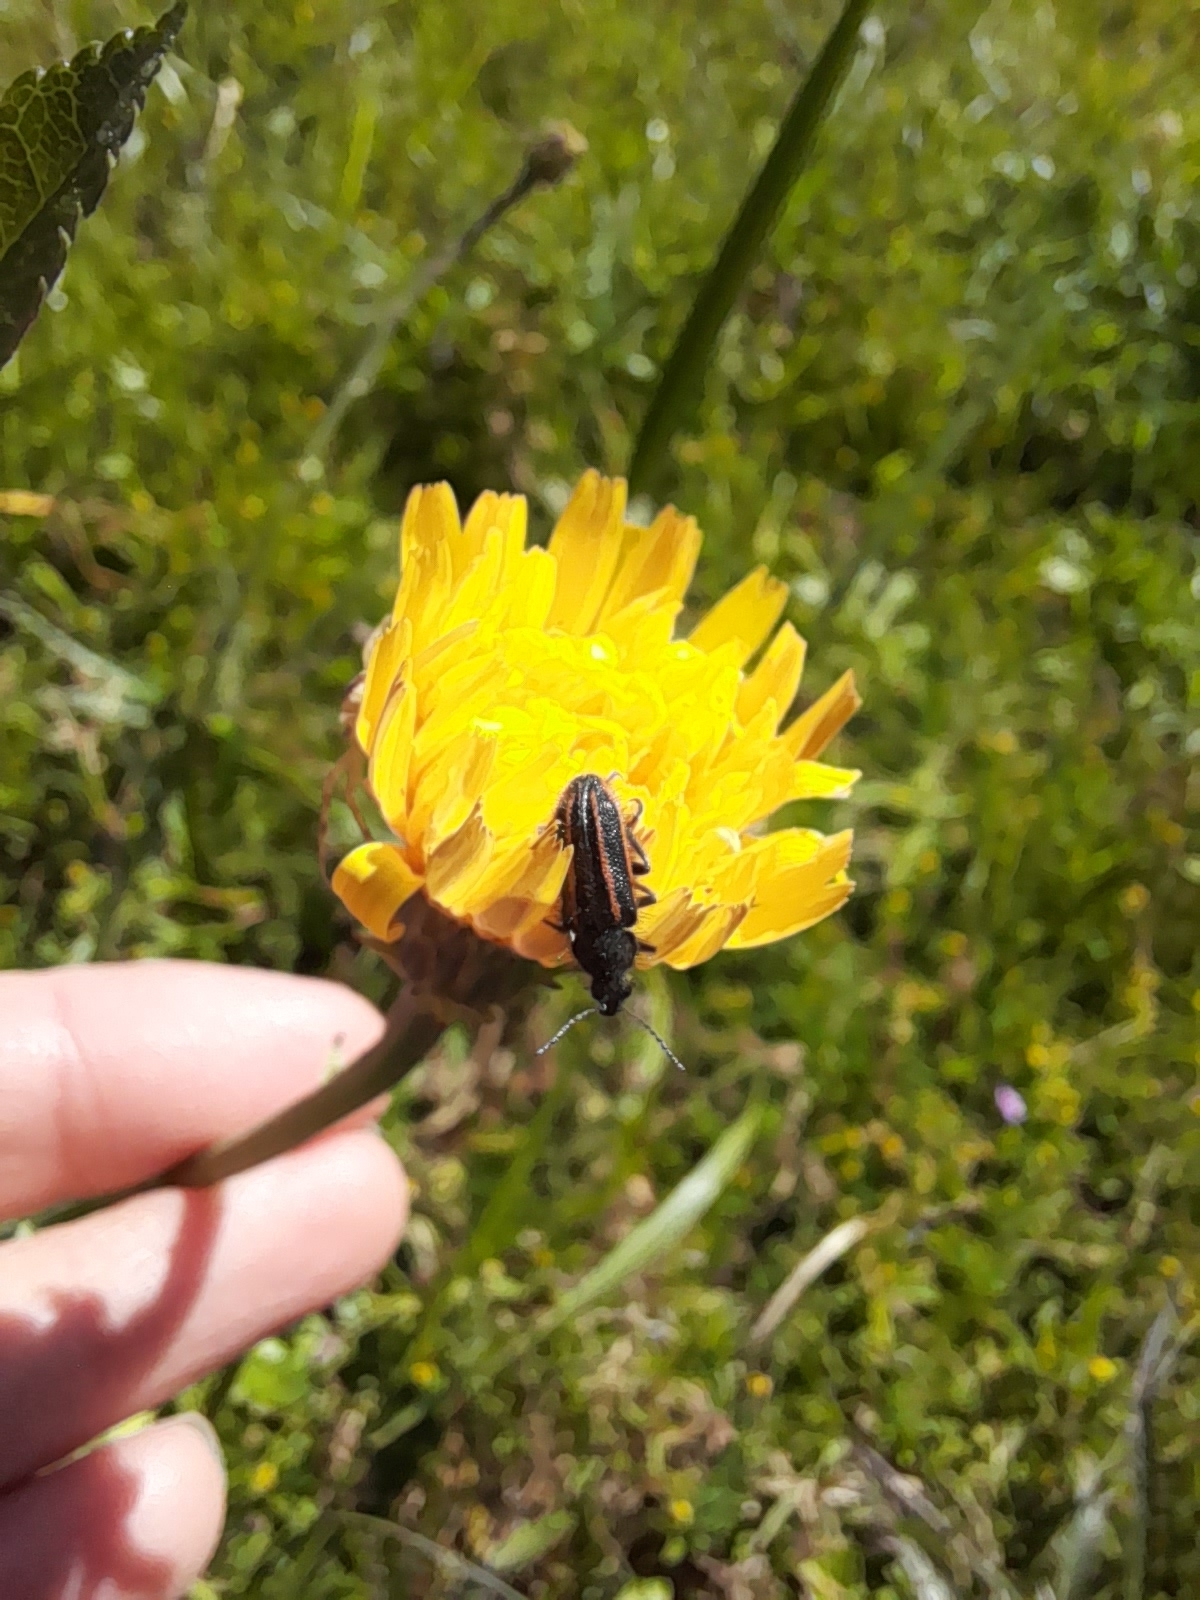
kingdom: Animalia
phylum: Arthropoda
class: Insecta
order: Coleoptera
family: Melyridae
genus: Astylus
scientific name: Astylus
